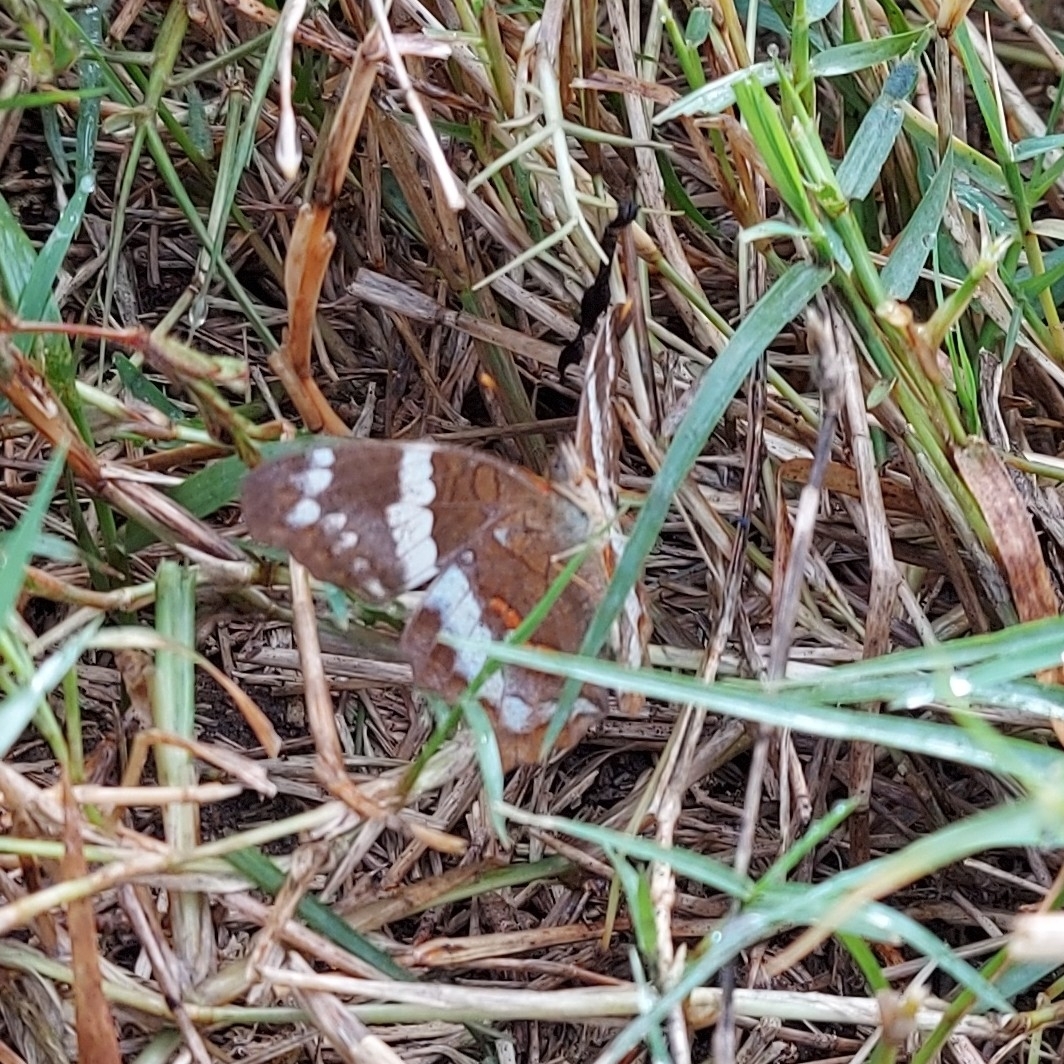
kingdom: Animalia
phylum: Arthropoda
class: Insecta
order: Lepidoptera
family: Nymphalidae
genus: Anartia
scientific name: Anartia fatima
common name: Banded peacock
